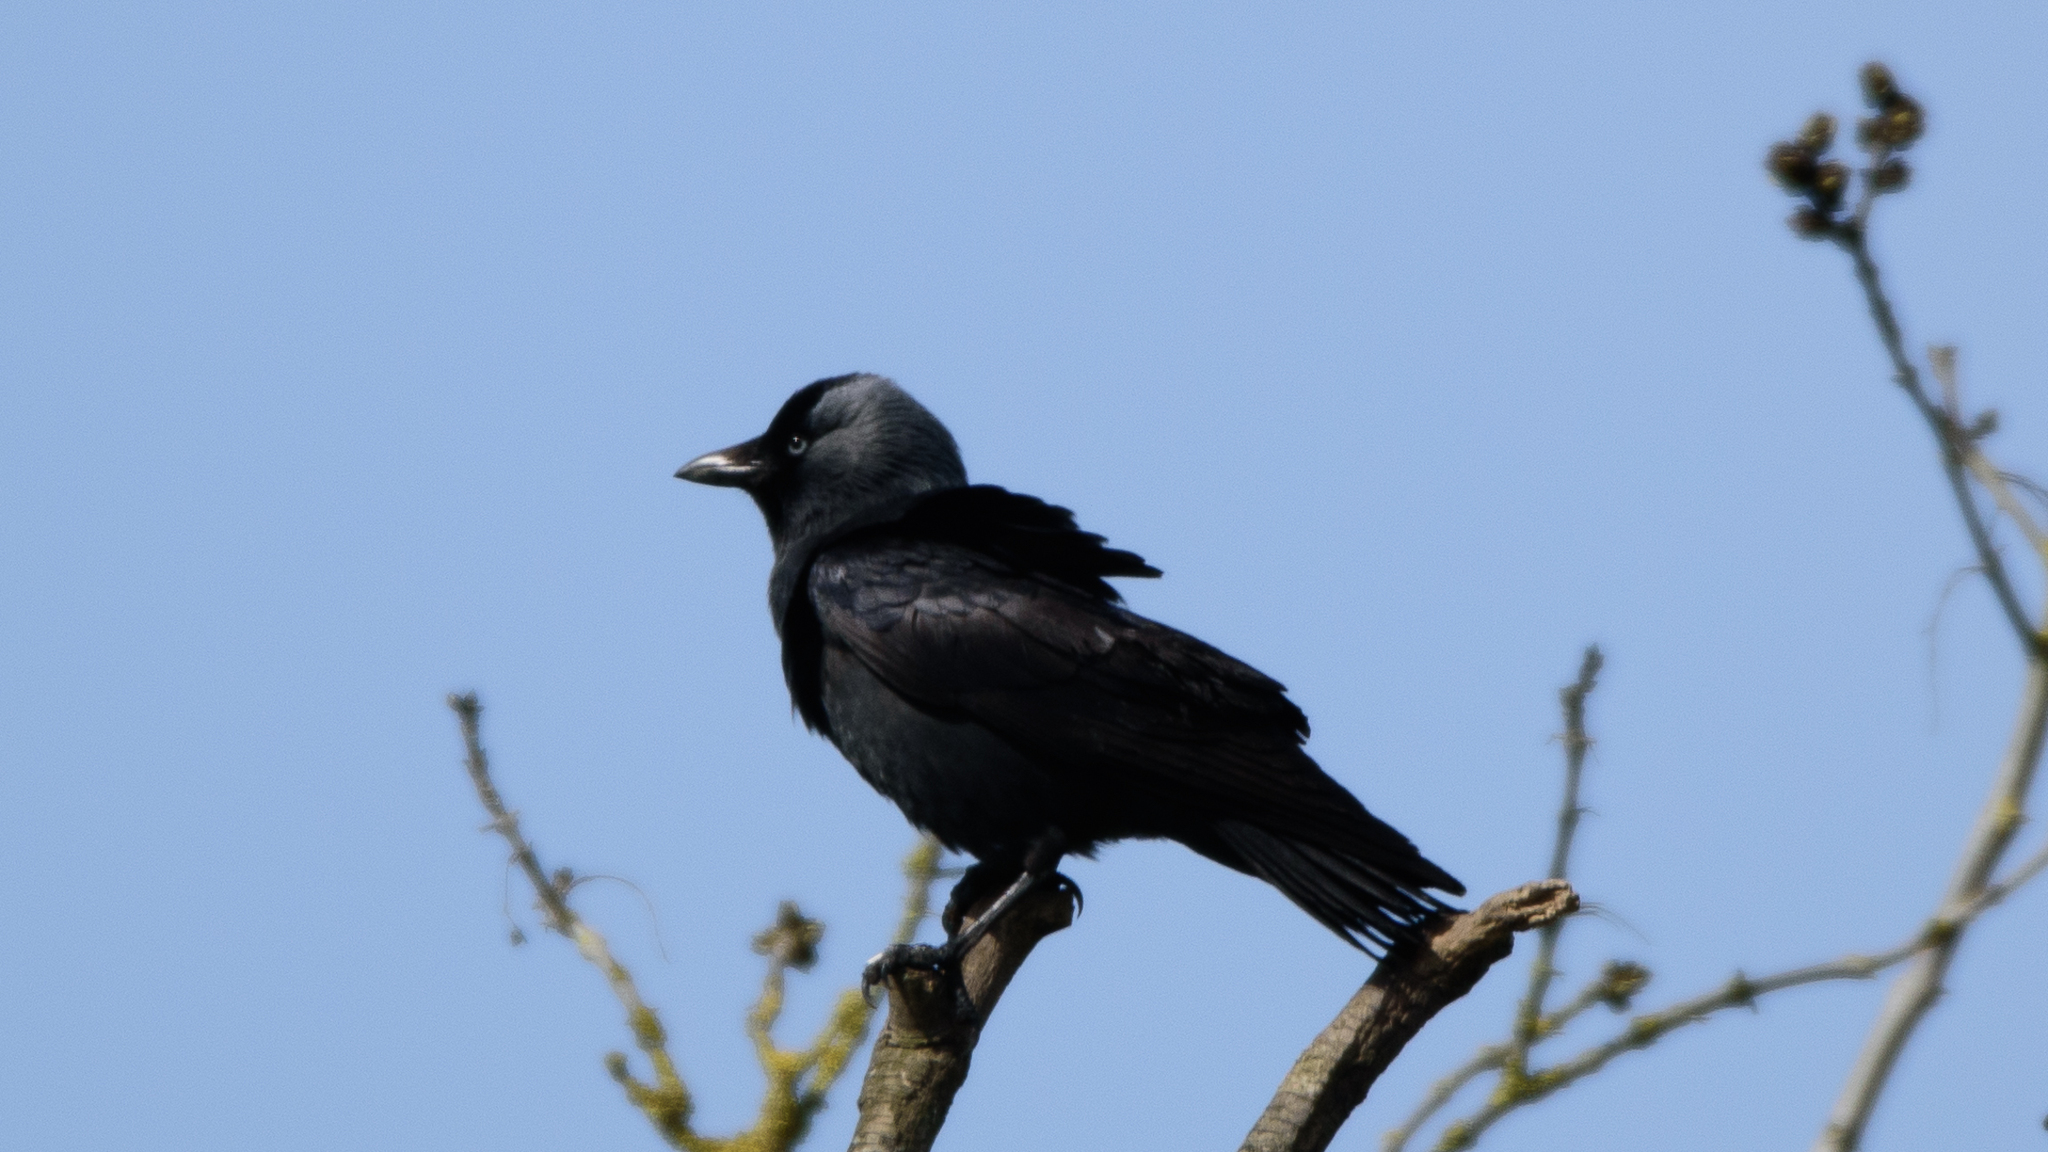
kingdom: Animalia
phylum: Chordata
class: Aves
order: Passeriformes
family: Corvidae
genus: Coloeus
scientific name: Coloeus monedula
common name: Western jackdaw
